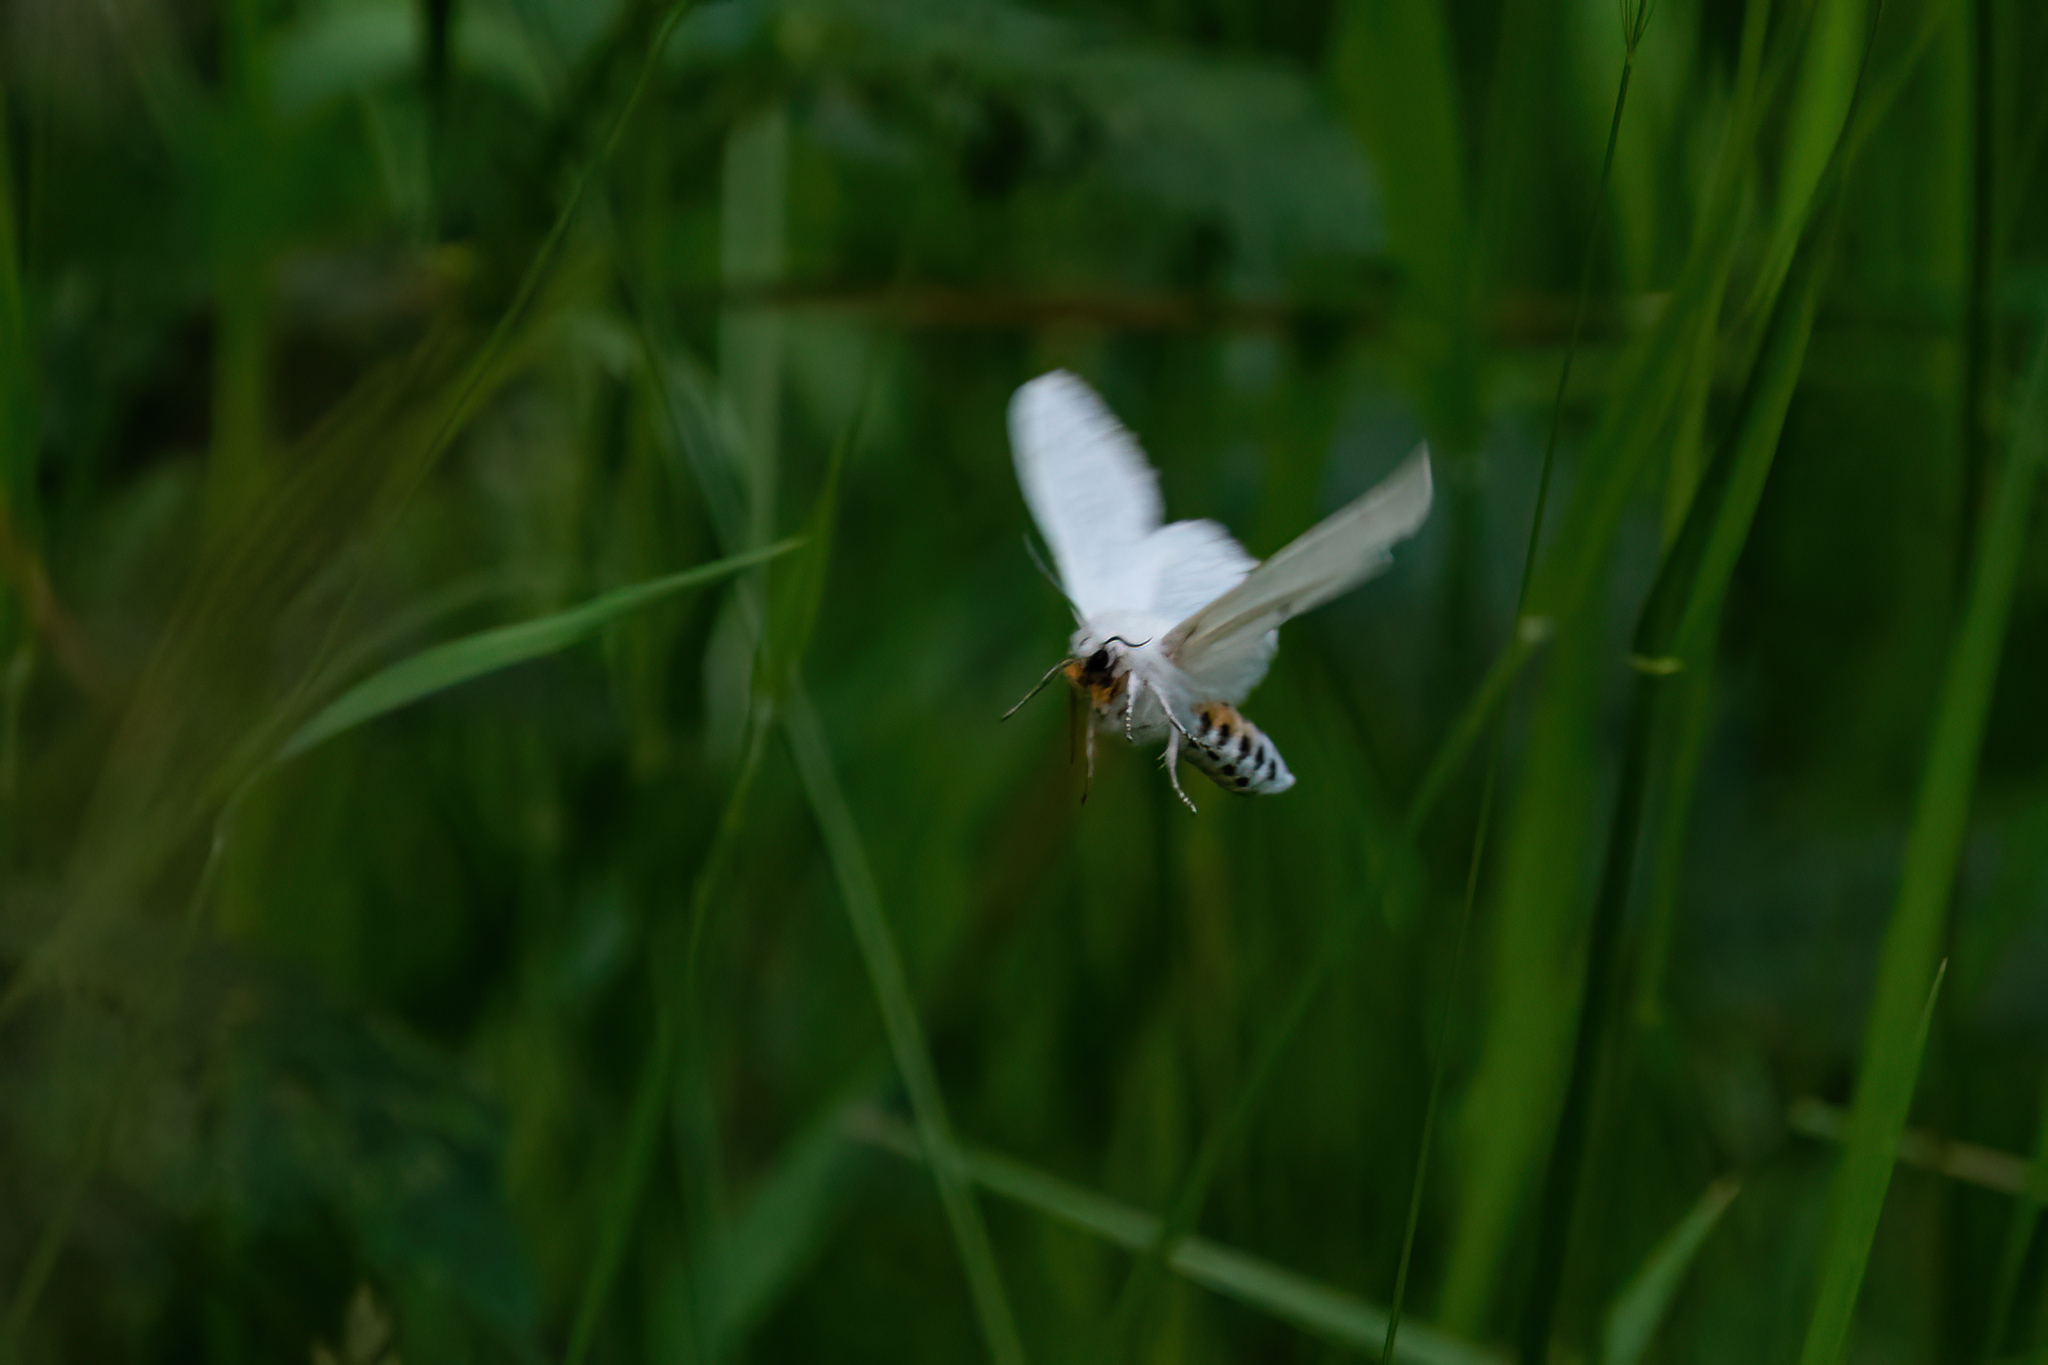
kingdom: Animalia
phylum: Arthropoda
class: Insecta
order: Lepidoptera
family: Erebidae
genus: Spilosoma
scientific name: Spilosoma virginica
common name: Virginia tiger moth
